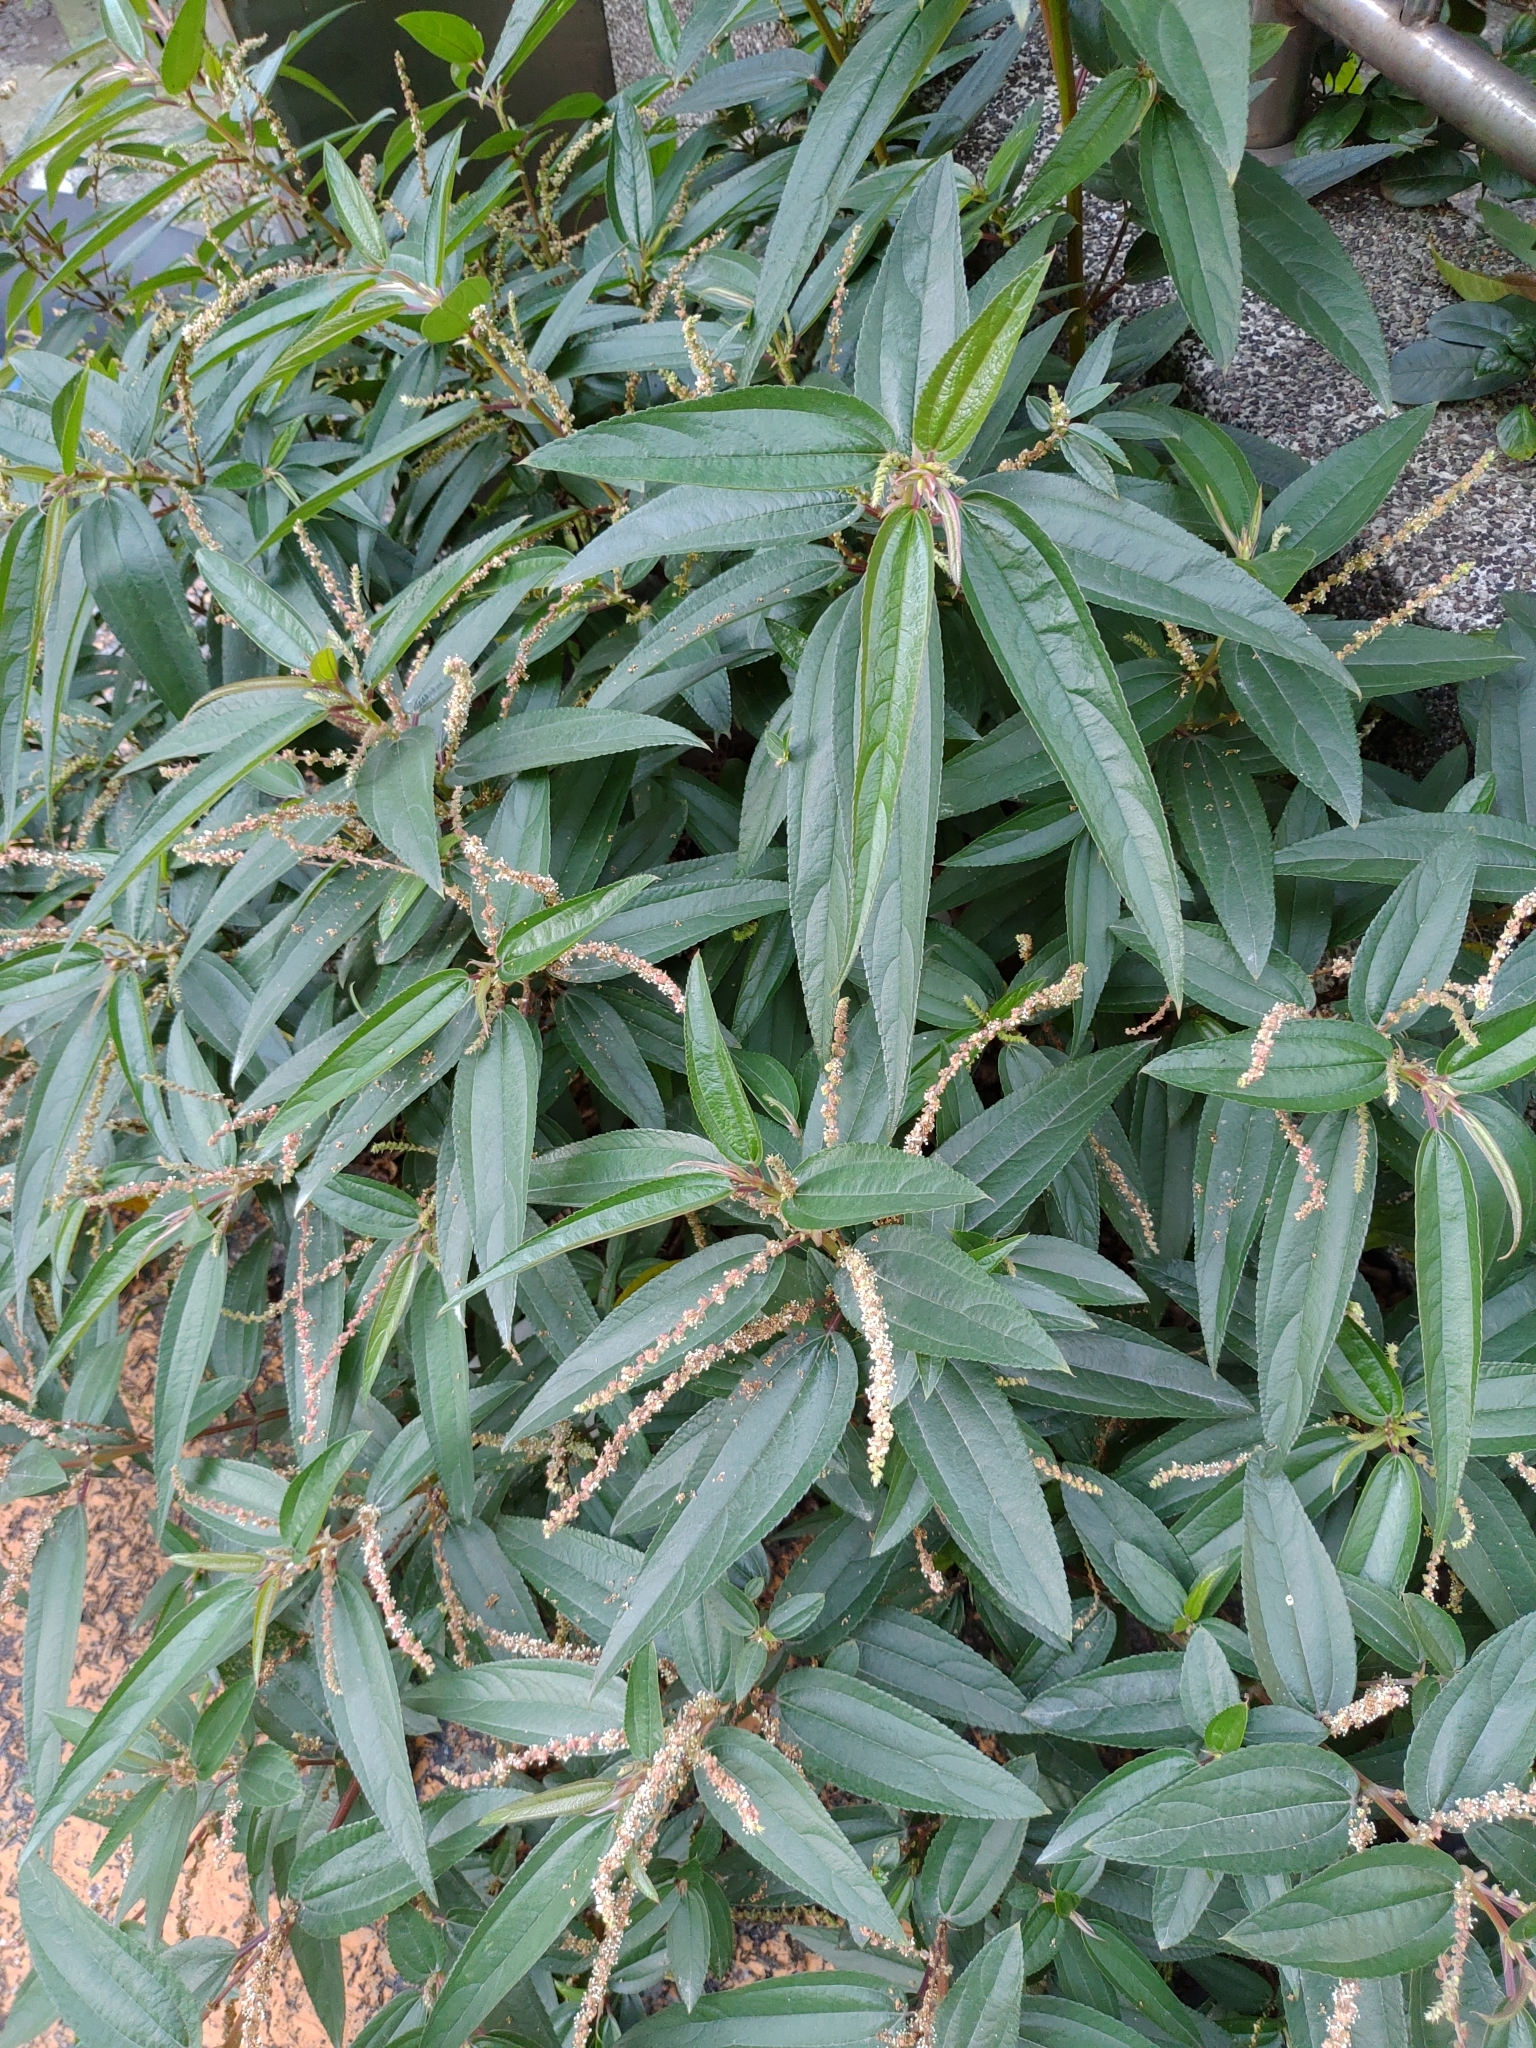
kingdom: Plantae
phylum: Tracheophyta
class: Magnoliopsida
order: Rosales
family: Urticaceae
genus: Boehmeria
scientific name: Boehmeria densiflora
